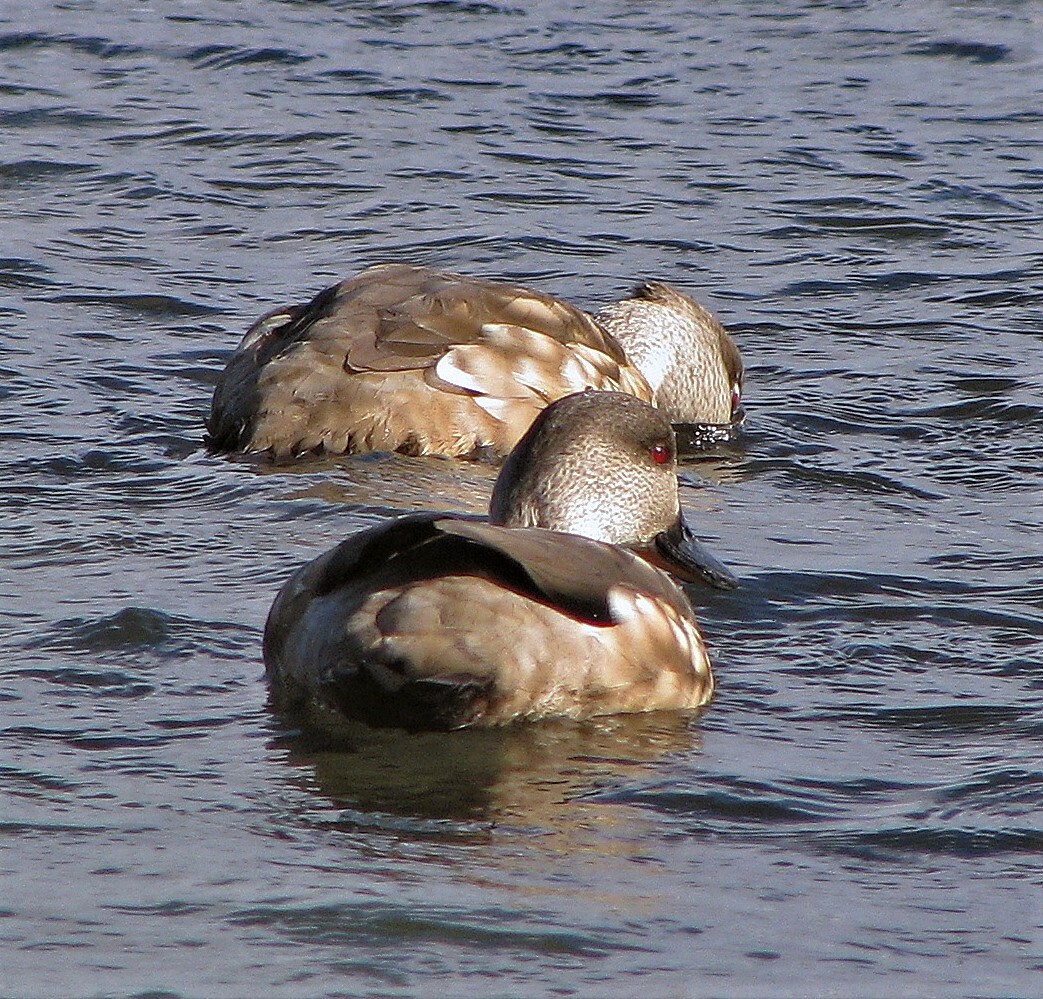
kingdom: Animalia
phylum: Chordata
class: Aves
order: Anseriformes
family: Anatidae
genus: Lophonetta
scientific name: Lophonetta specularioides
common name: Crested duck
